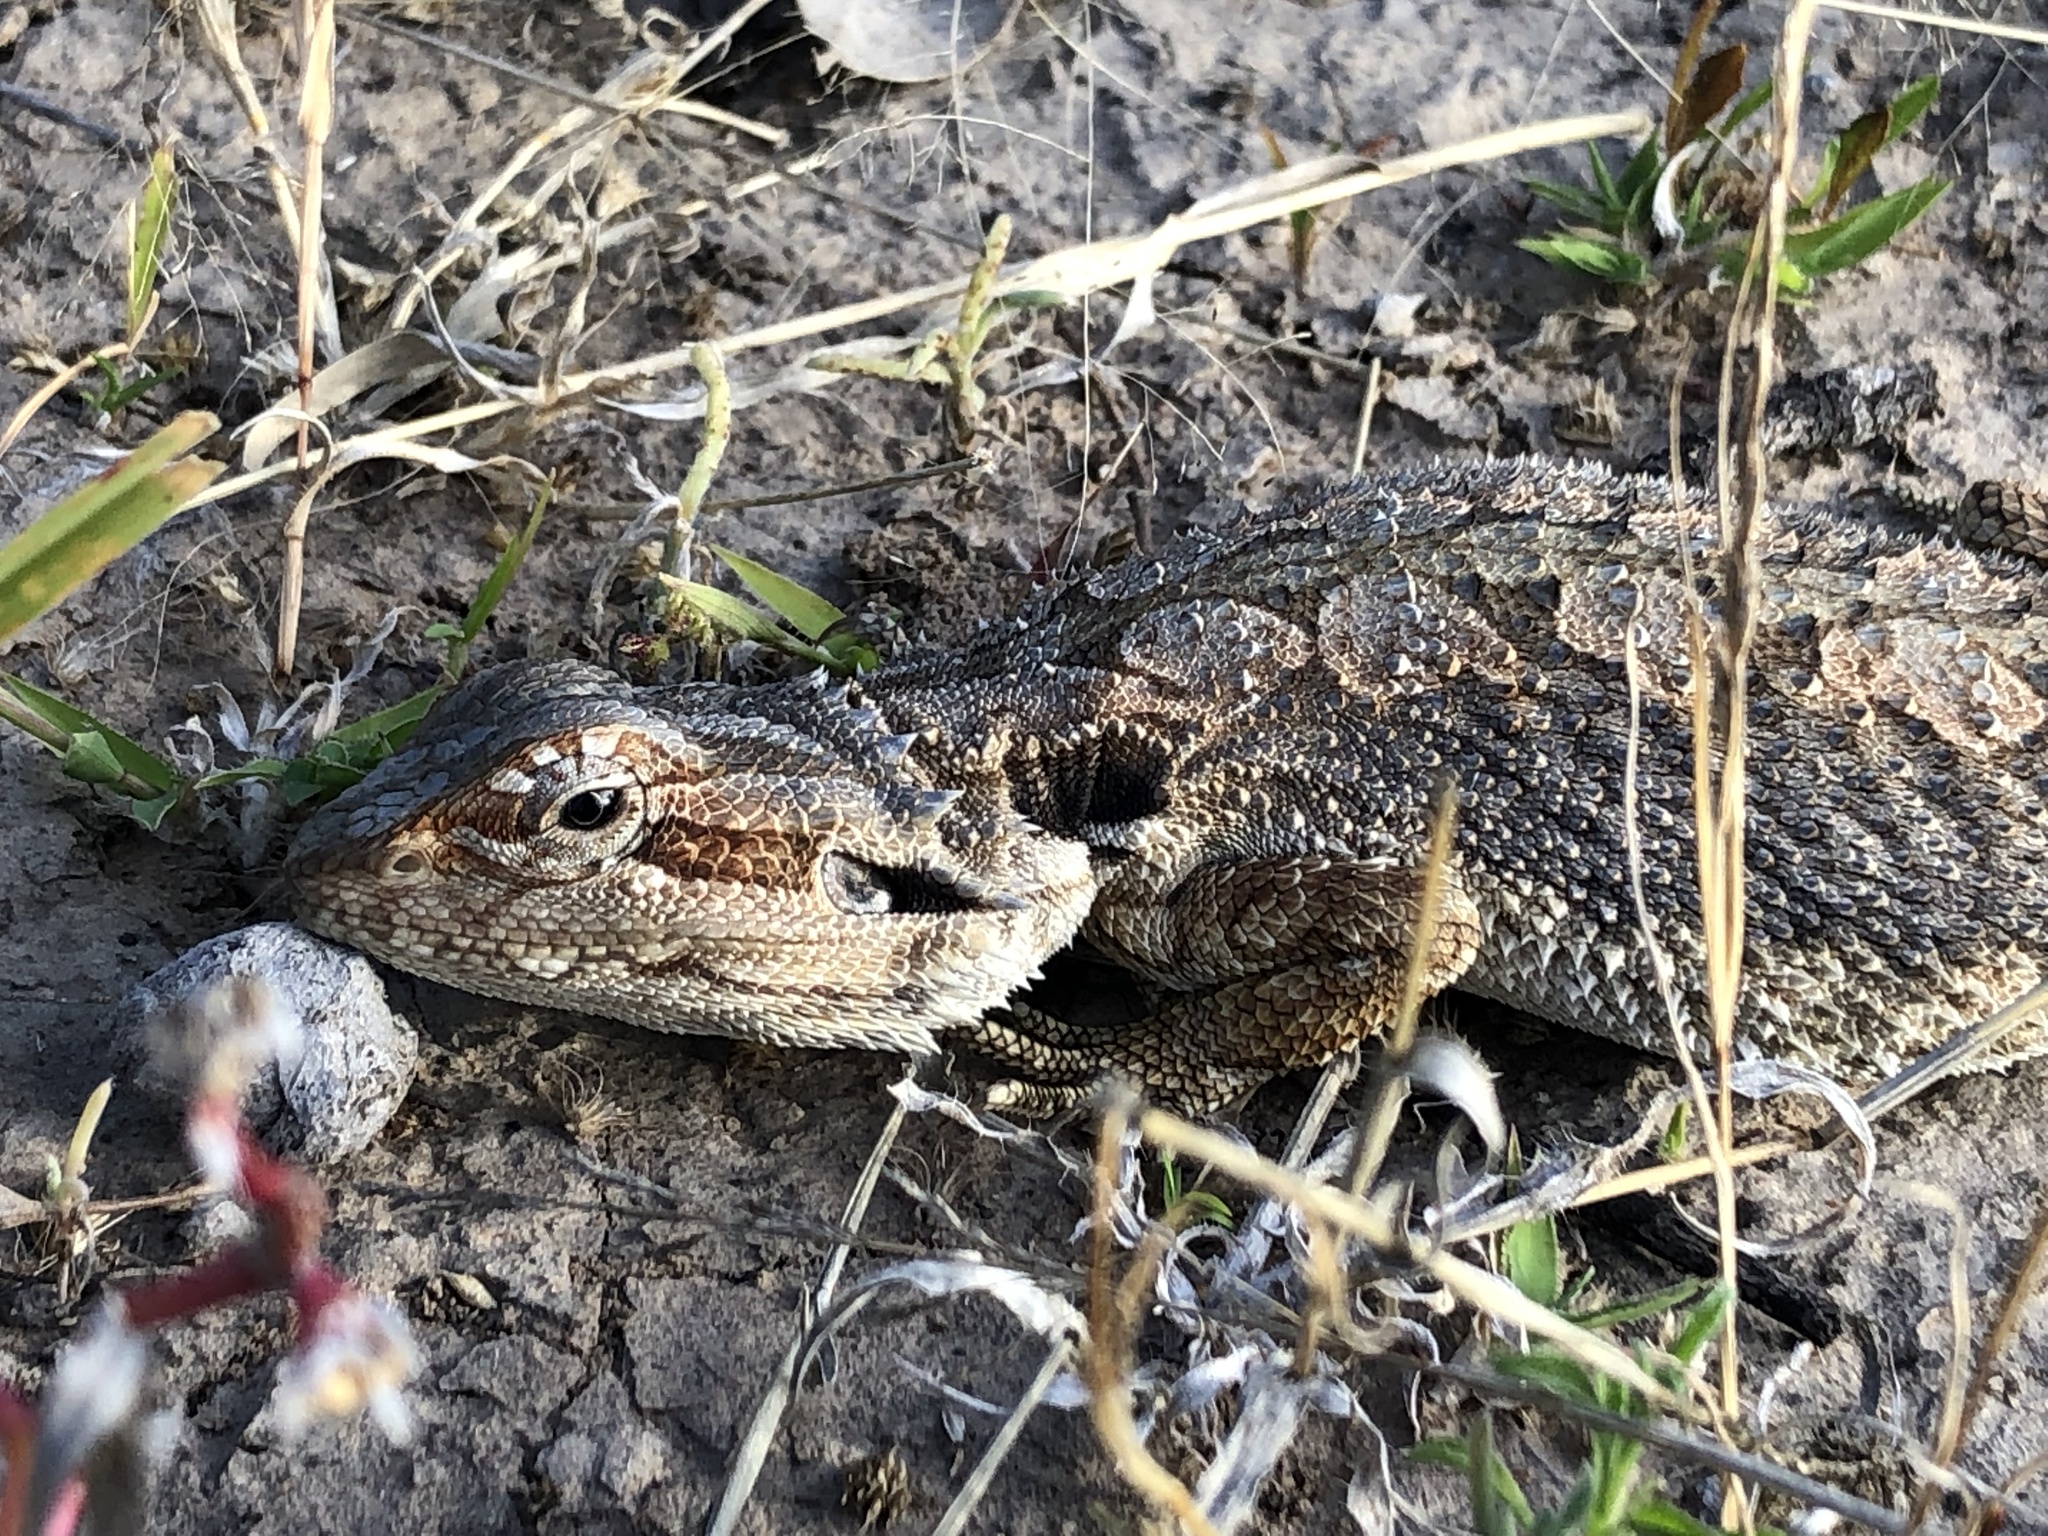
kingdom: Animalia
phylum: Chordata
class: Squamata
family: Agamidae
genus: Pogona
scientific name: Pogona barbata
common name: Bearded dragon
